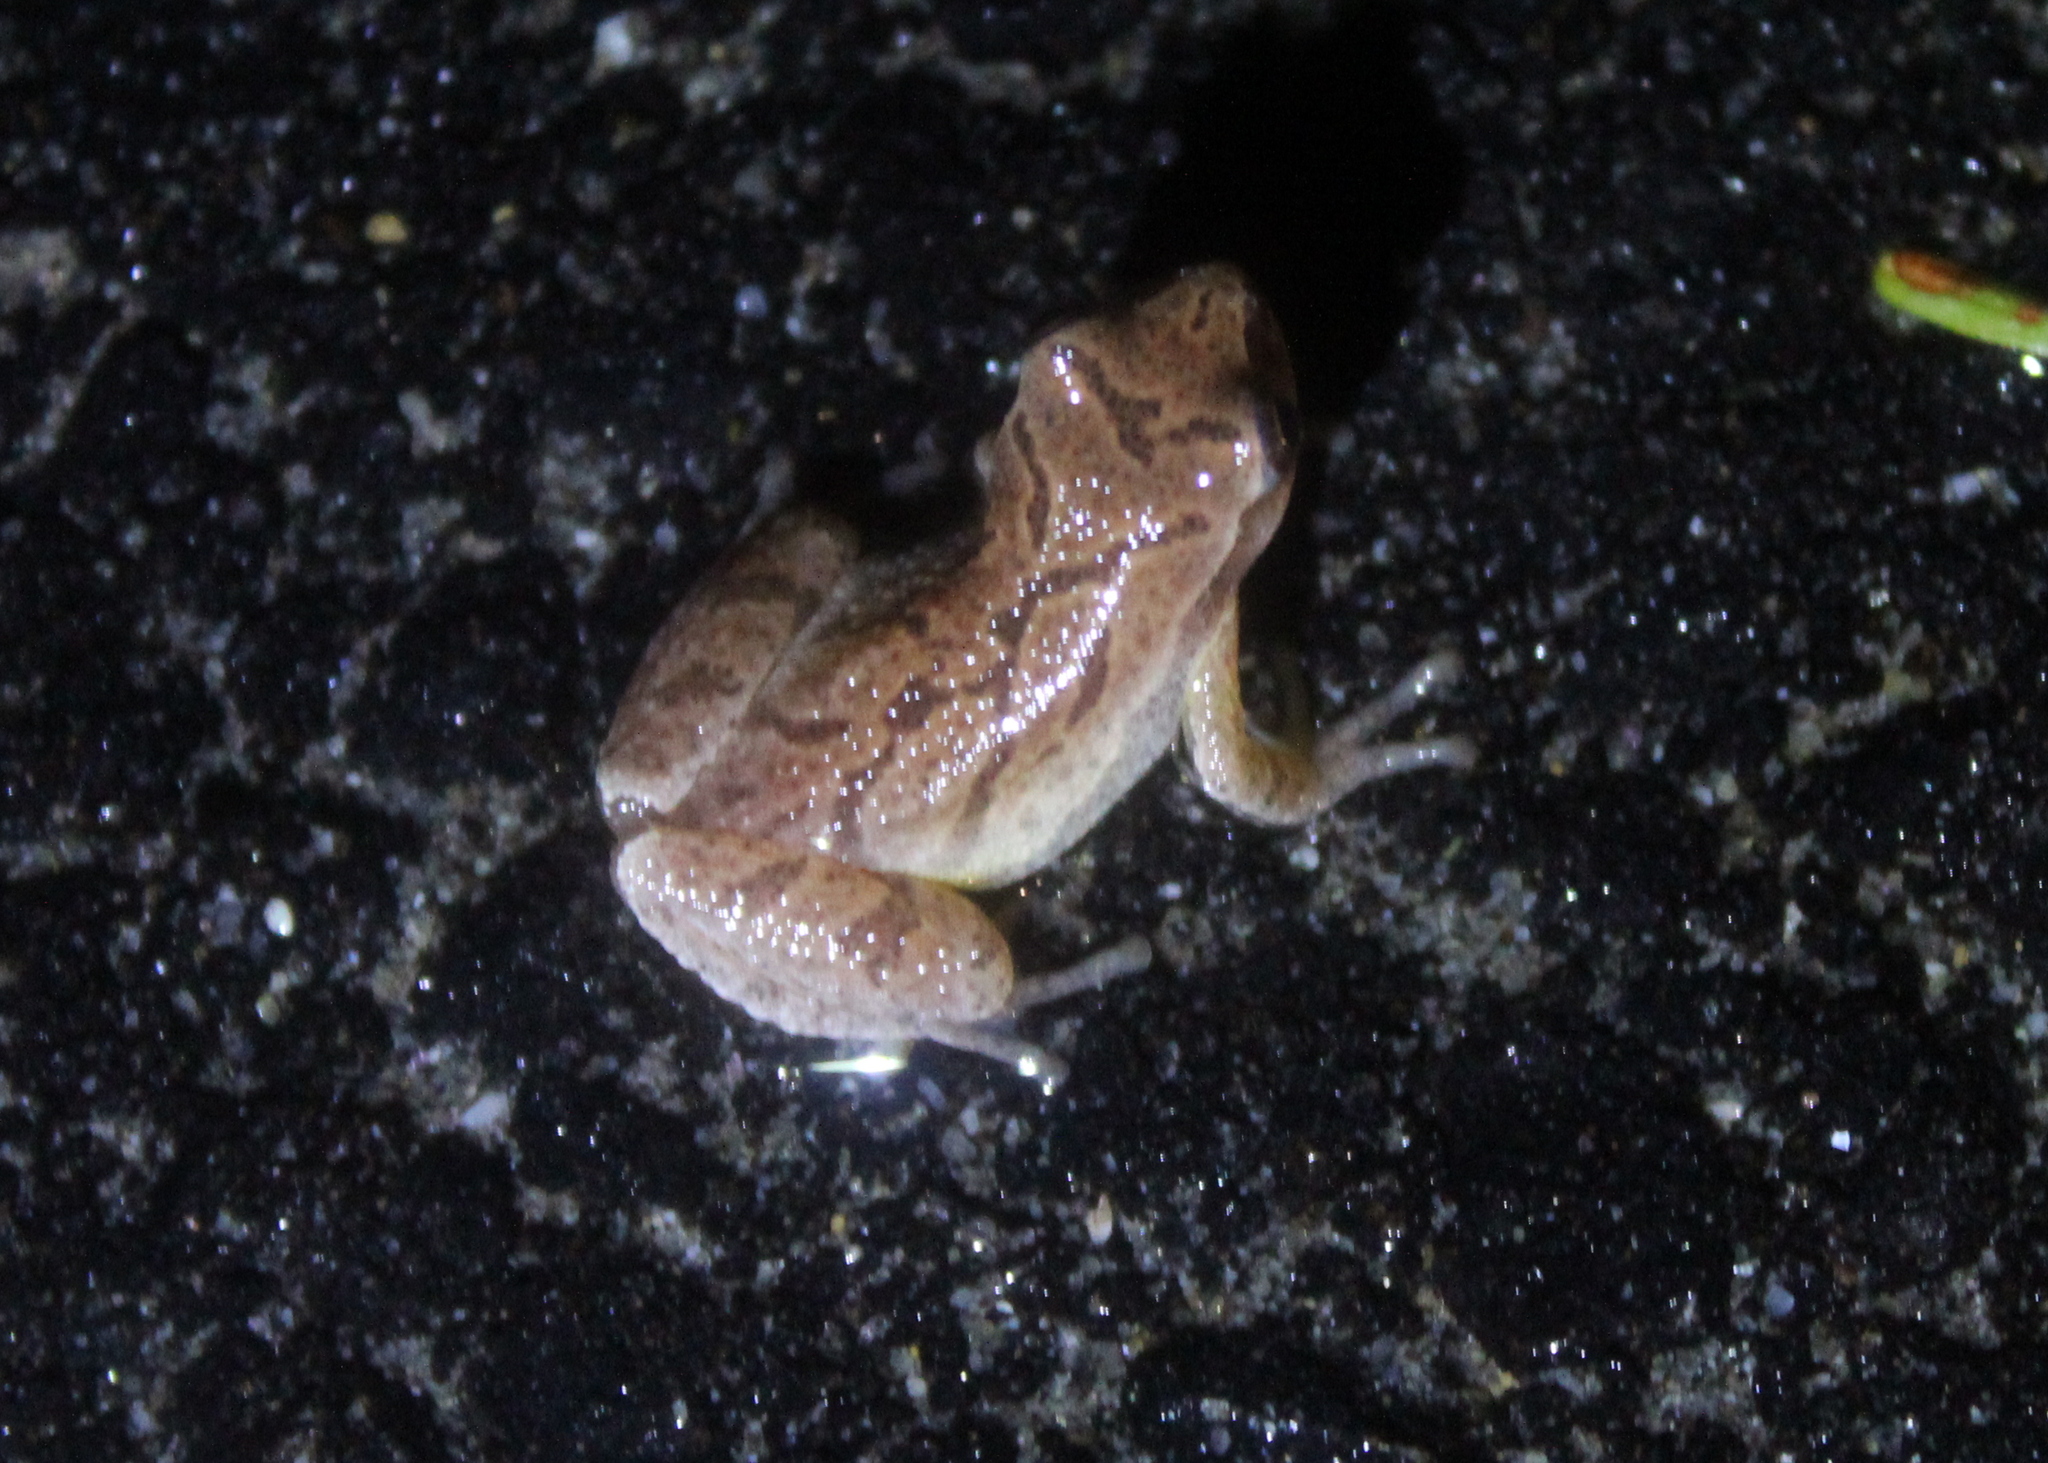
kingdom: Animalia
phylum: Chordata
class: Amphibia
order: Anura
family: Hylidae
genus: Pseudacris
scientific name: Pseudacris crucifer
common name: Spring peeper
